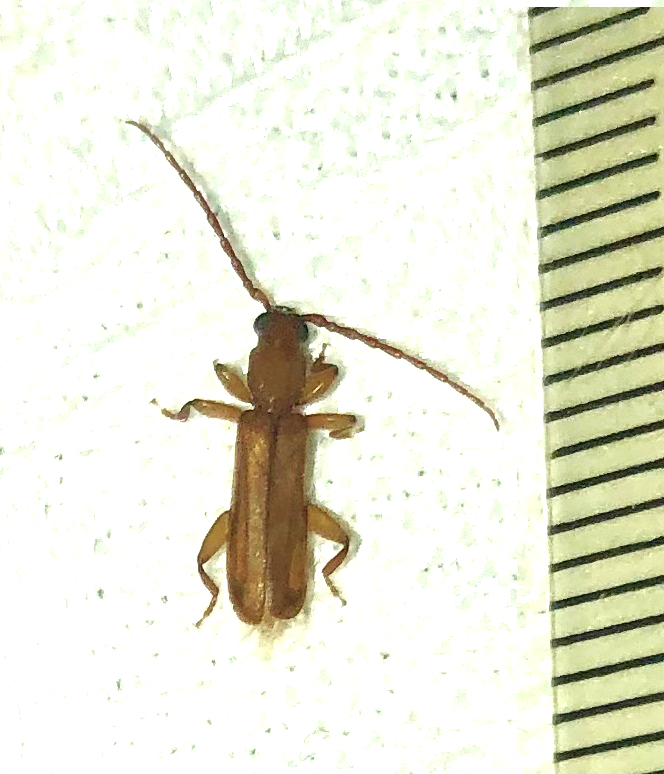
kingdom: Animalia
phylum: Arthropoda
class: Insecta
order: Coleoptera
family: Cerambycidae
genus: Smodicum
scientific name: Smodicum cucujiforme
